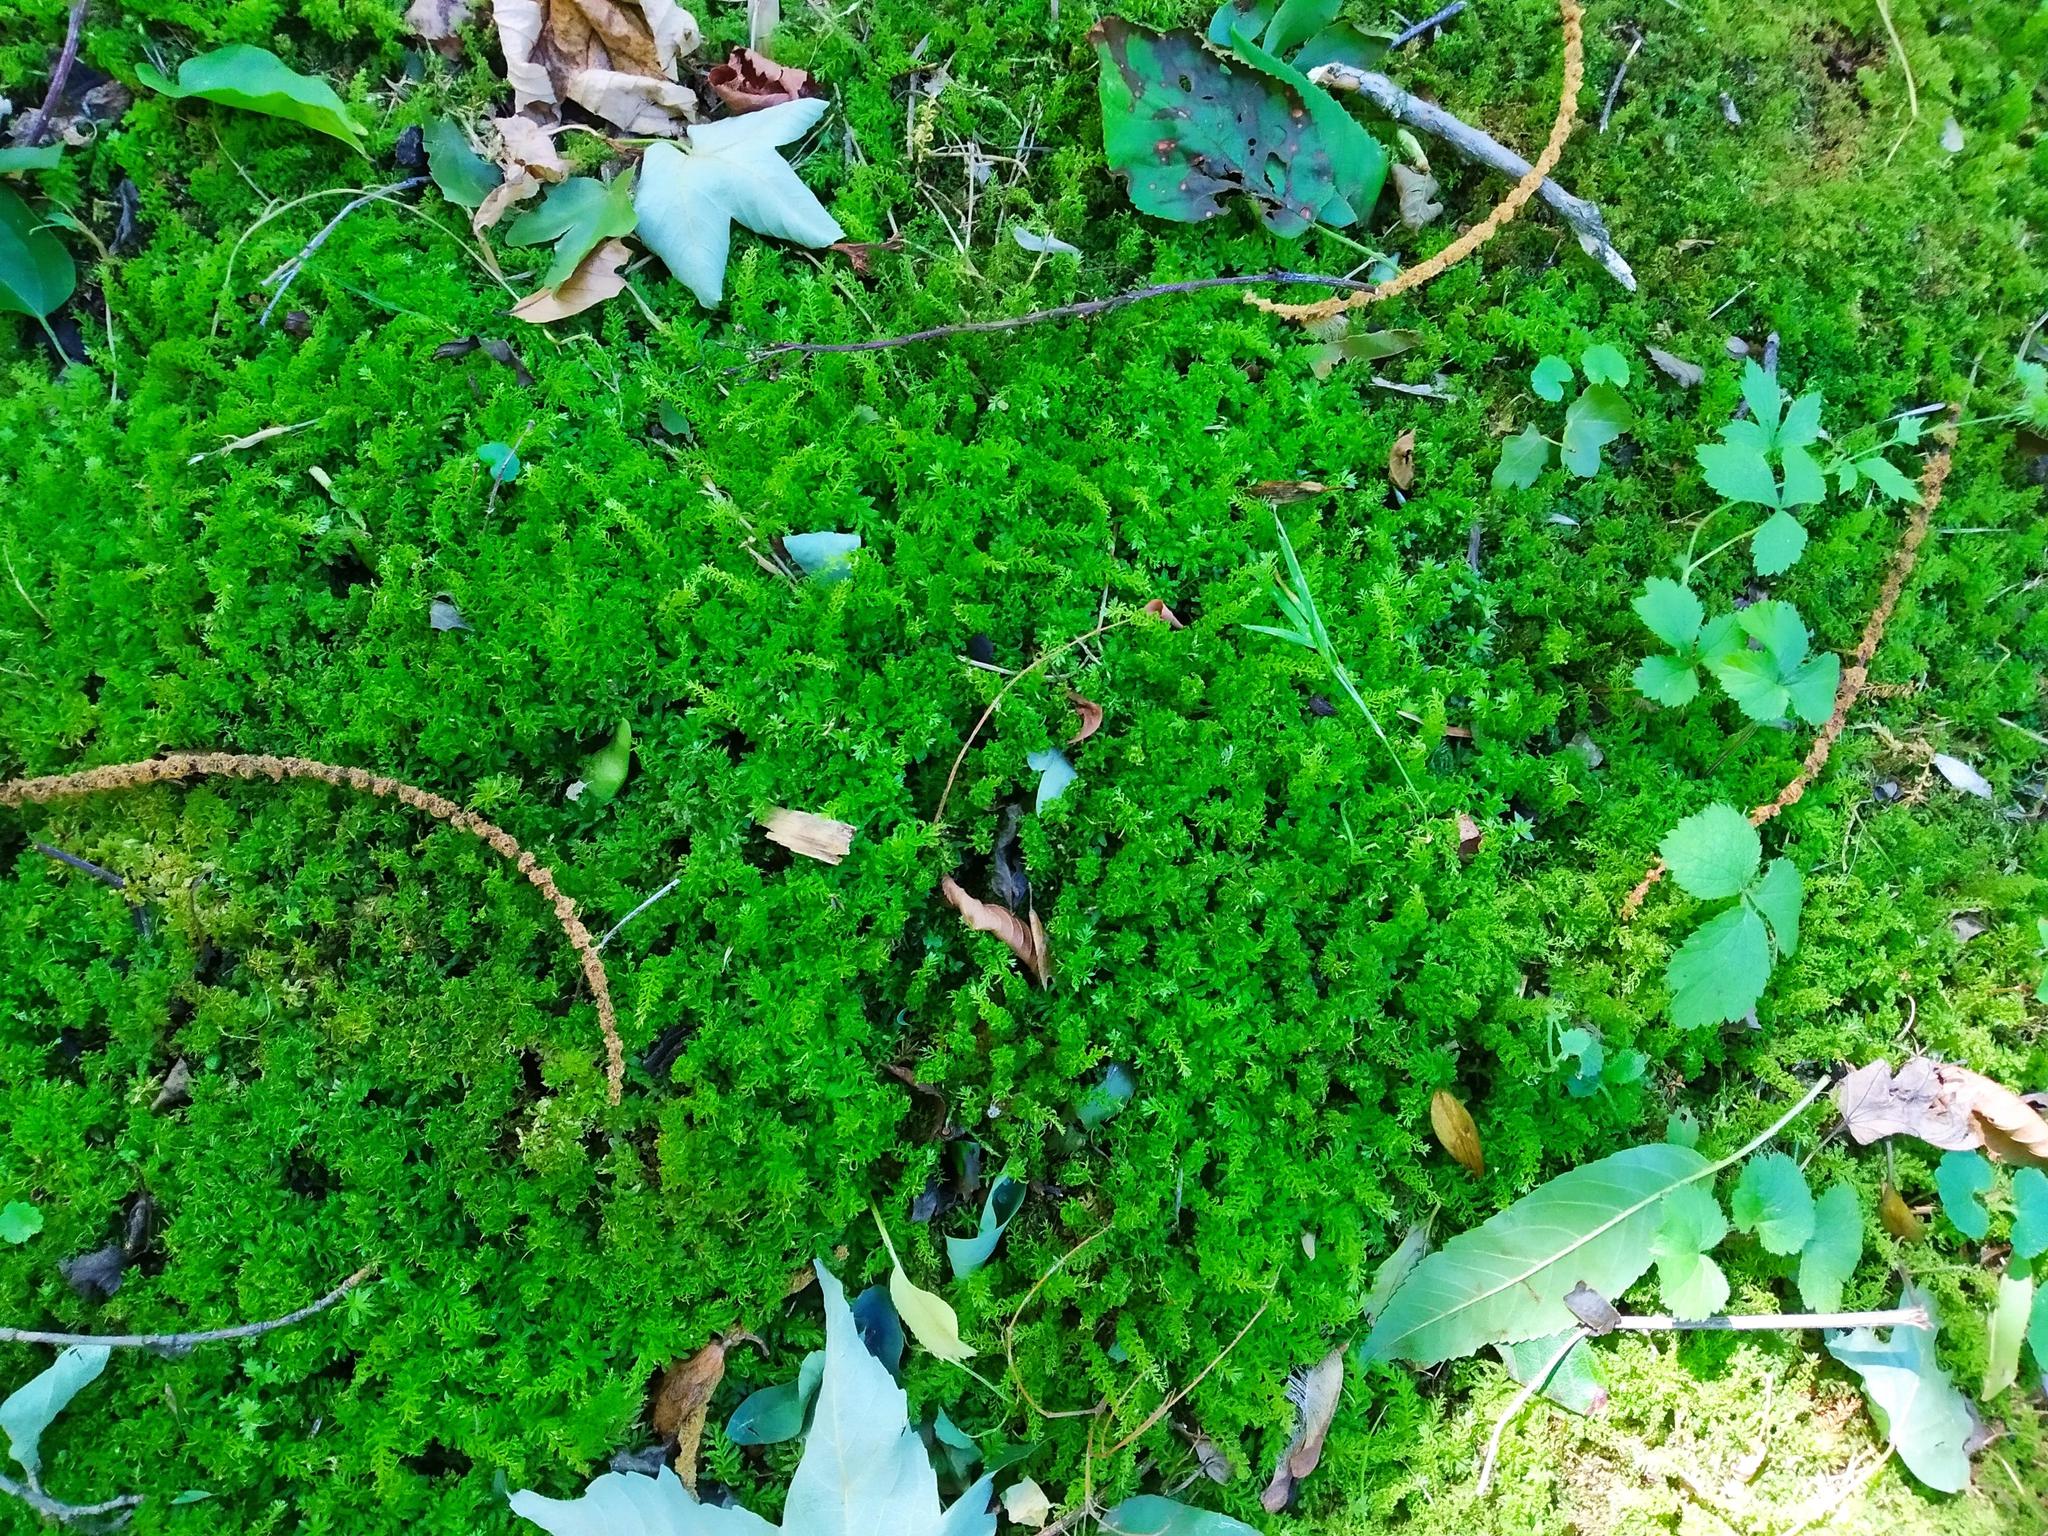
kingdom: Plantae
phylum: Bryophyta
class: Bryopsida
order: Bryales
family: Mniaceae
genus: Plagiomnium
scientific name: Plagiomnium undulatum
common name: Hart's-tongue thyme-moss
